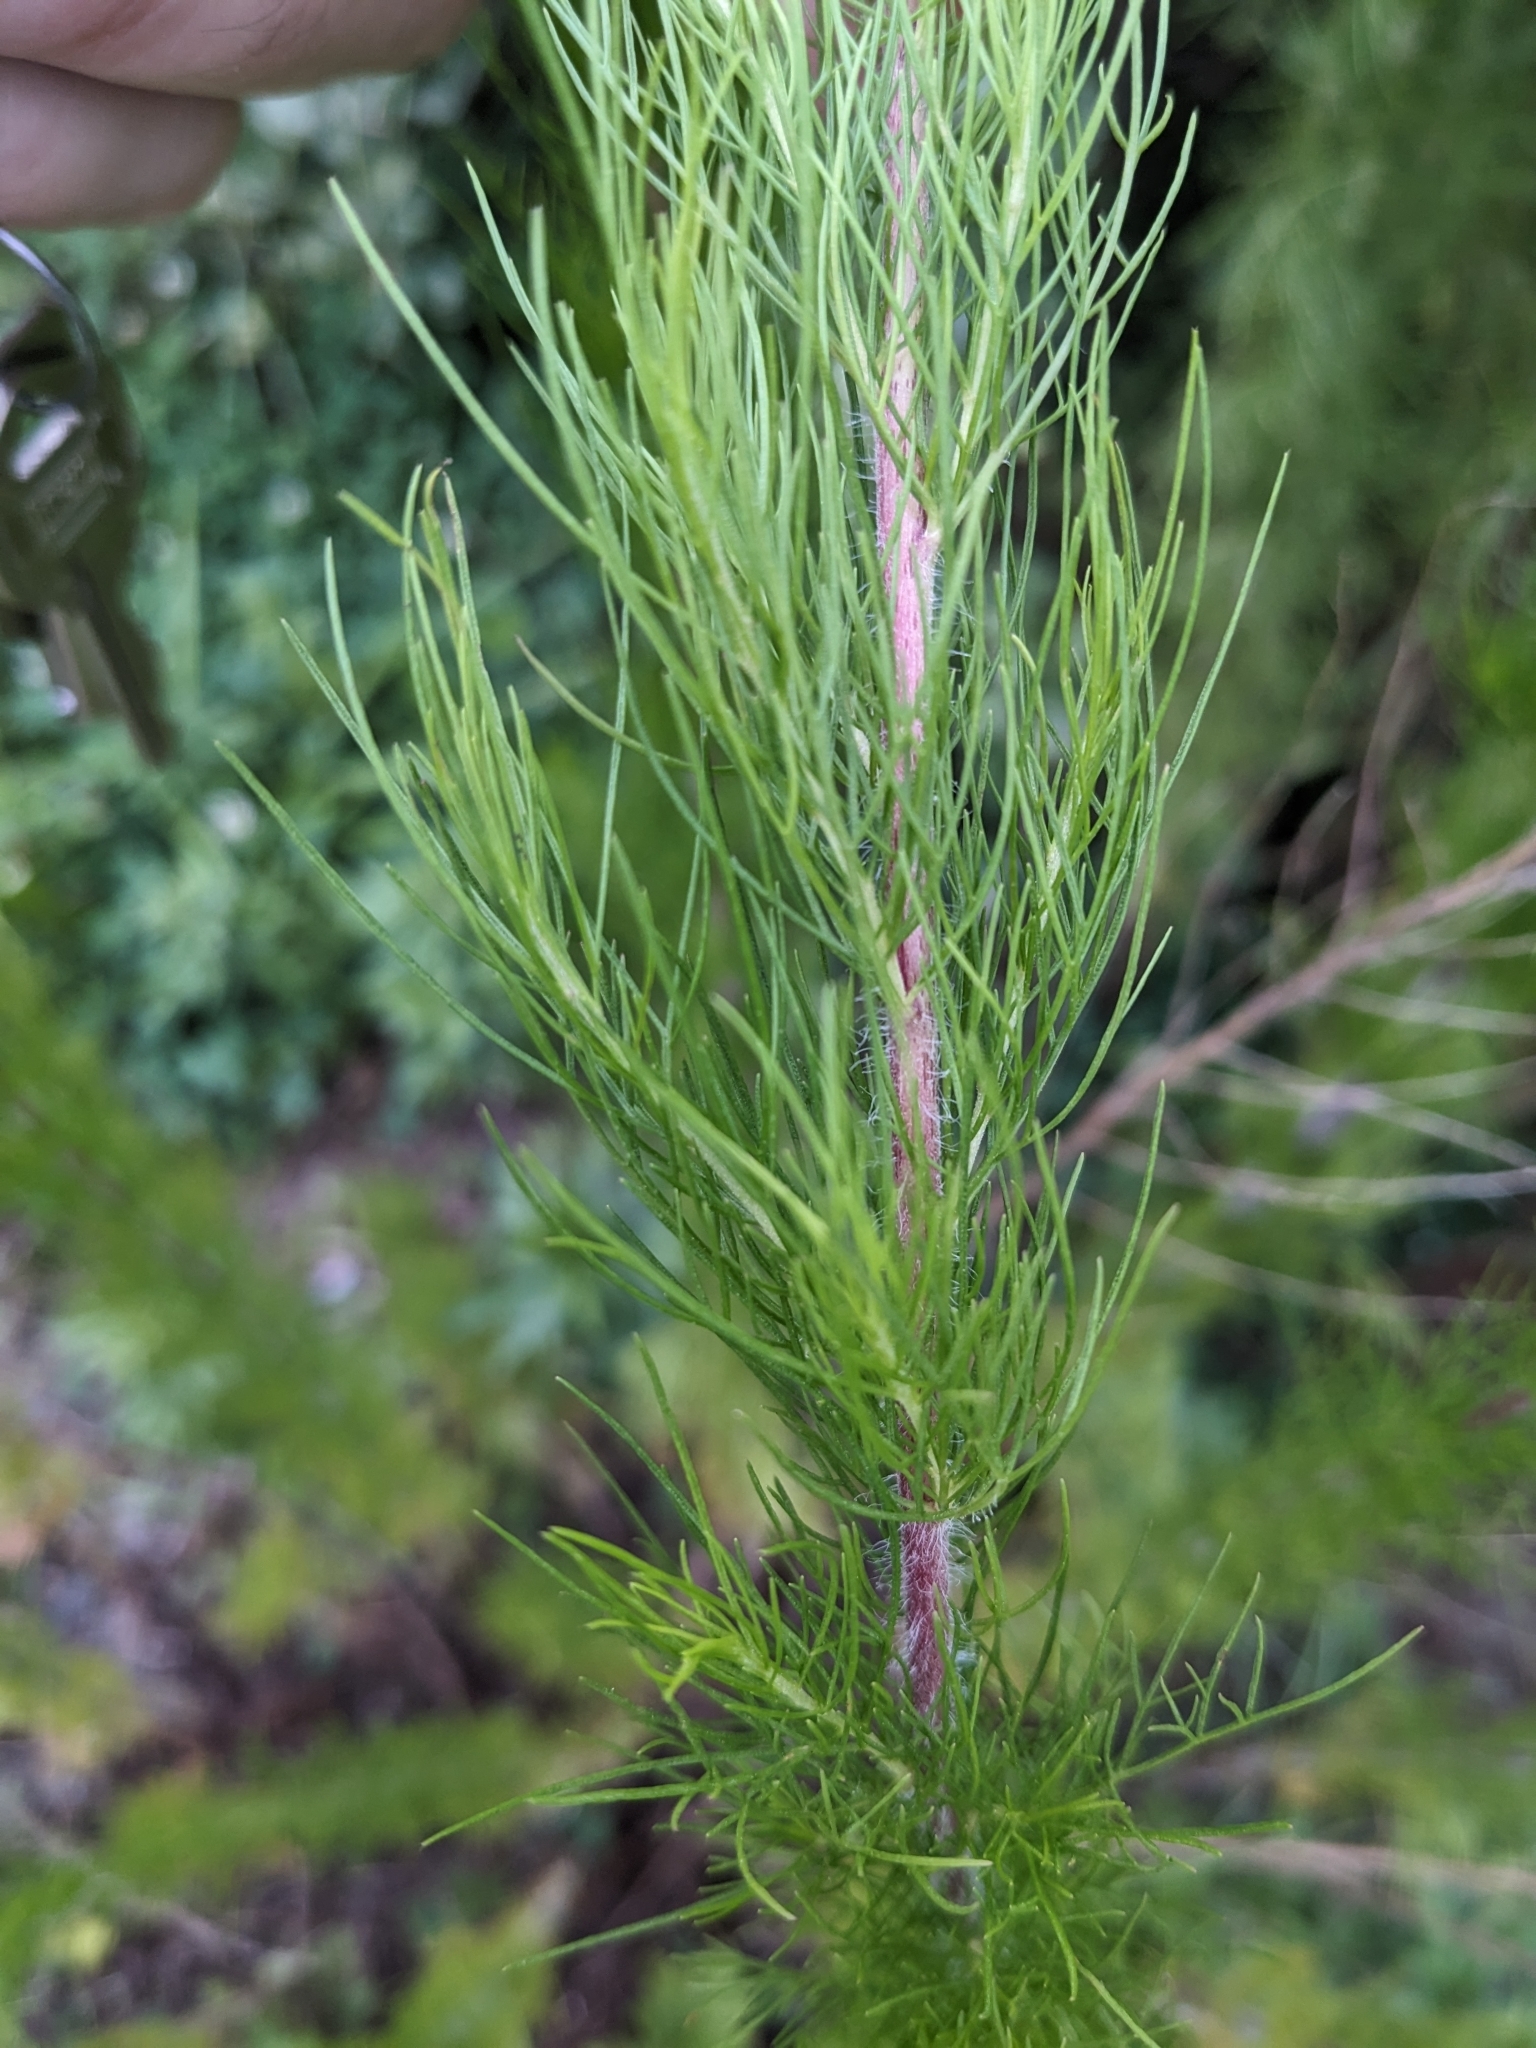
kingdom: Plantae
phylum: Tracheophyta
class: Magnoliopsida
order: Asterales
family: Asteraceae
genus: Eupatorium
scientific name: Eupatorium capillifolium
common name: Dog-fennel
